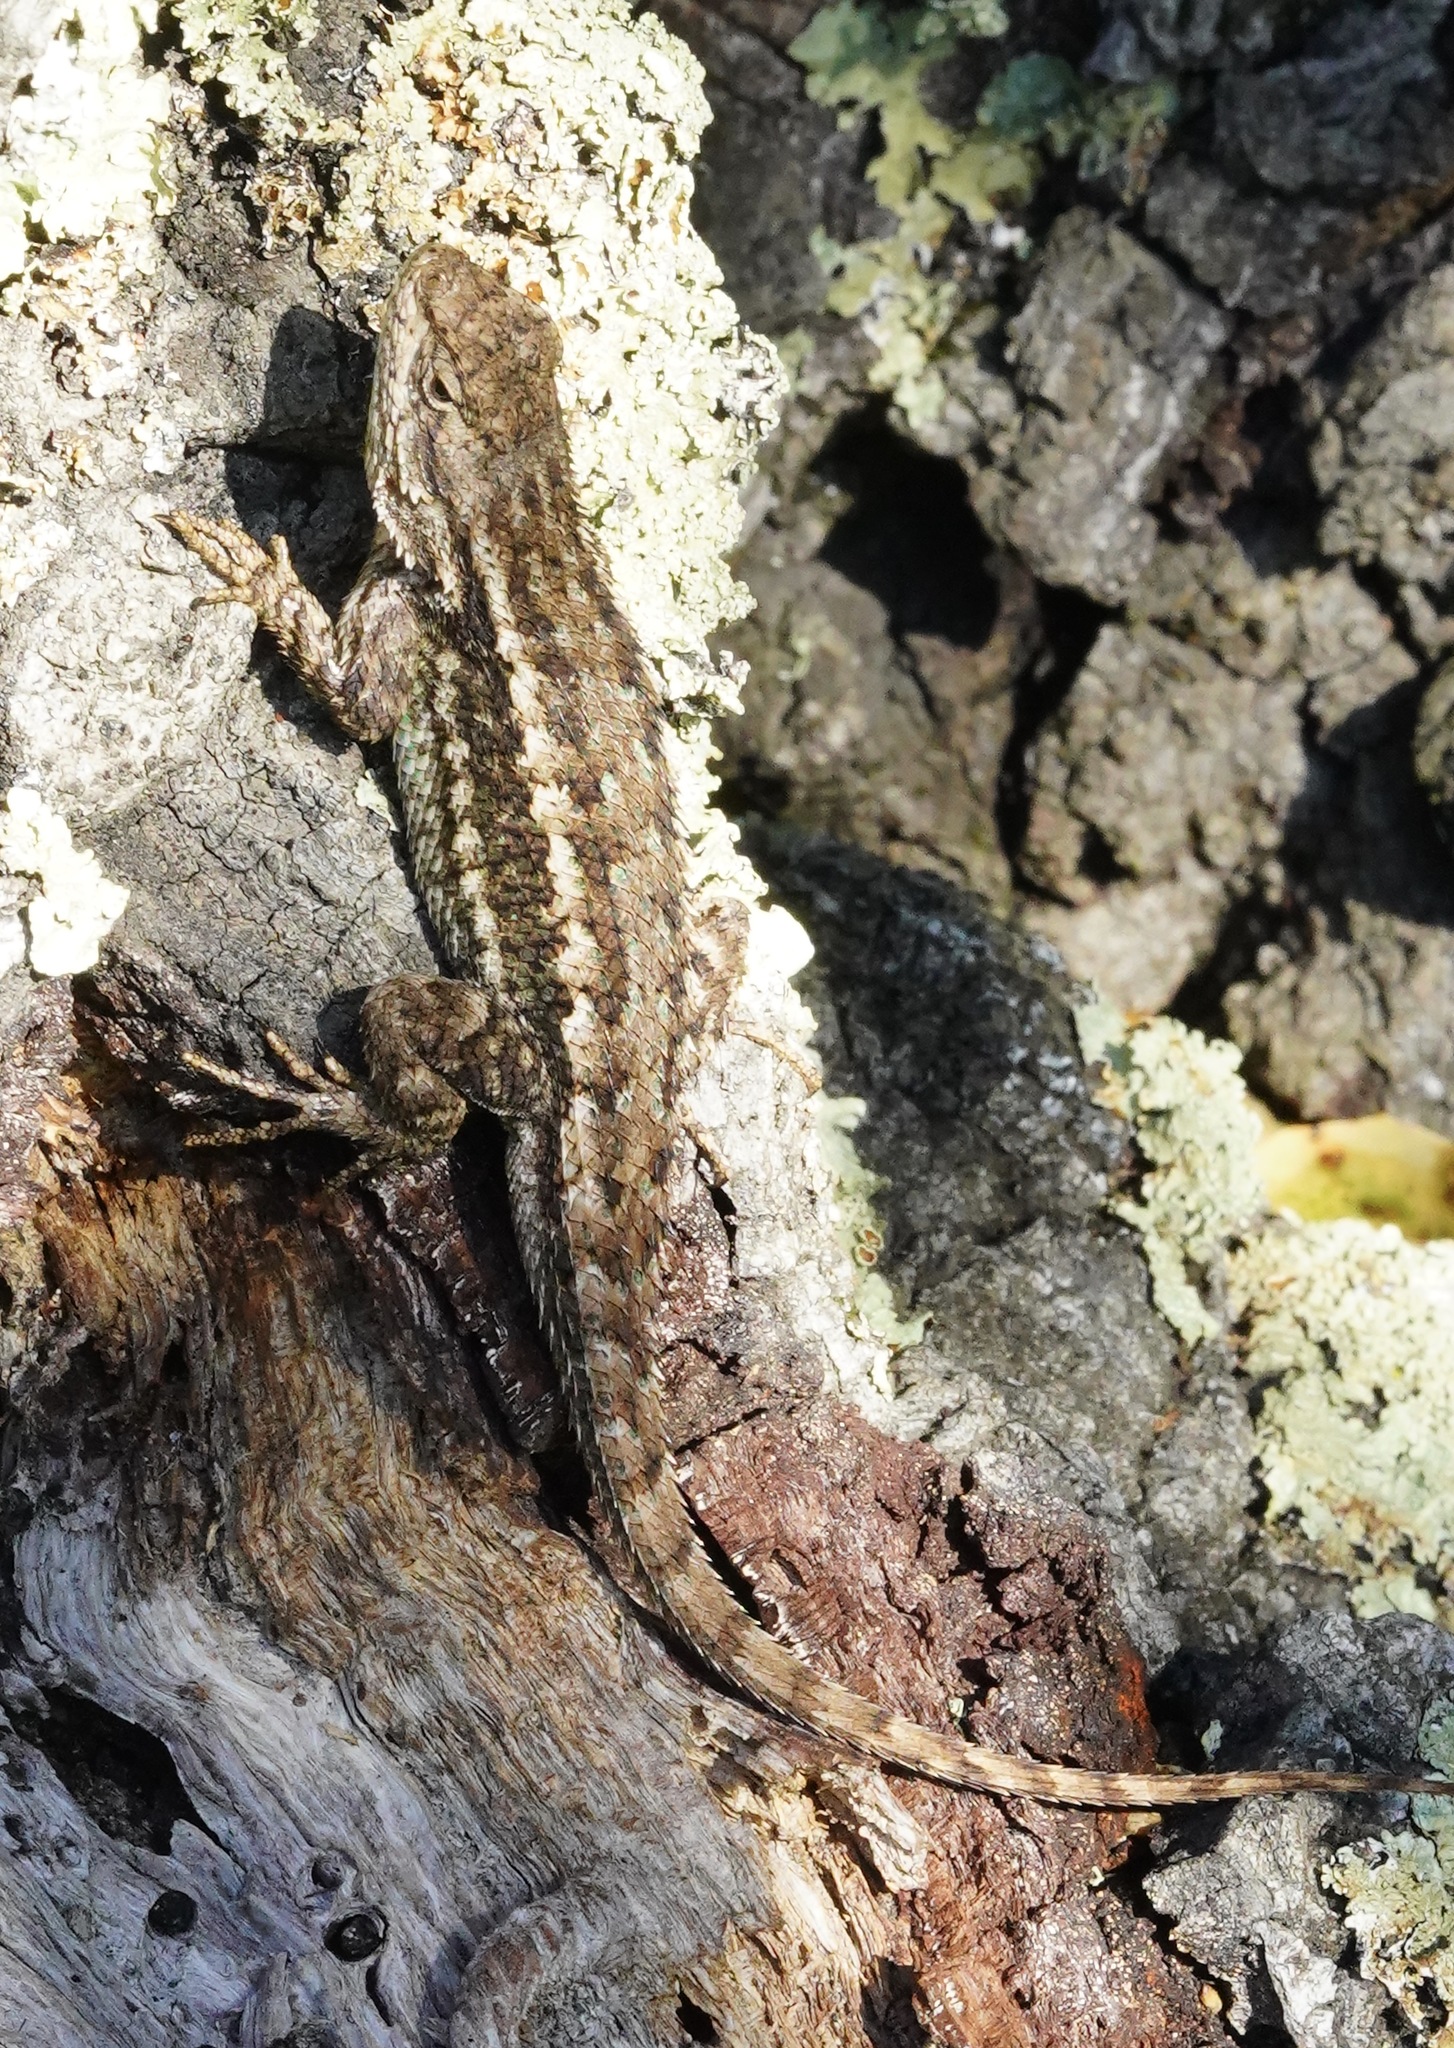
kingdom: Animalia
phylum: Chordata
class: Squamata
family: Phrynosomatidae
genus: Sceloporus
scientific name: Sceloporus occidentalis
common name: Western fence lizard
